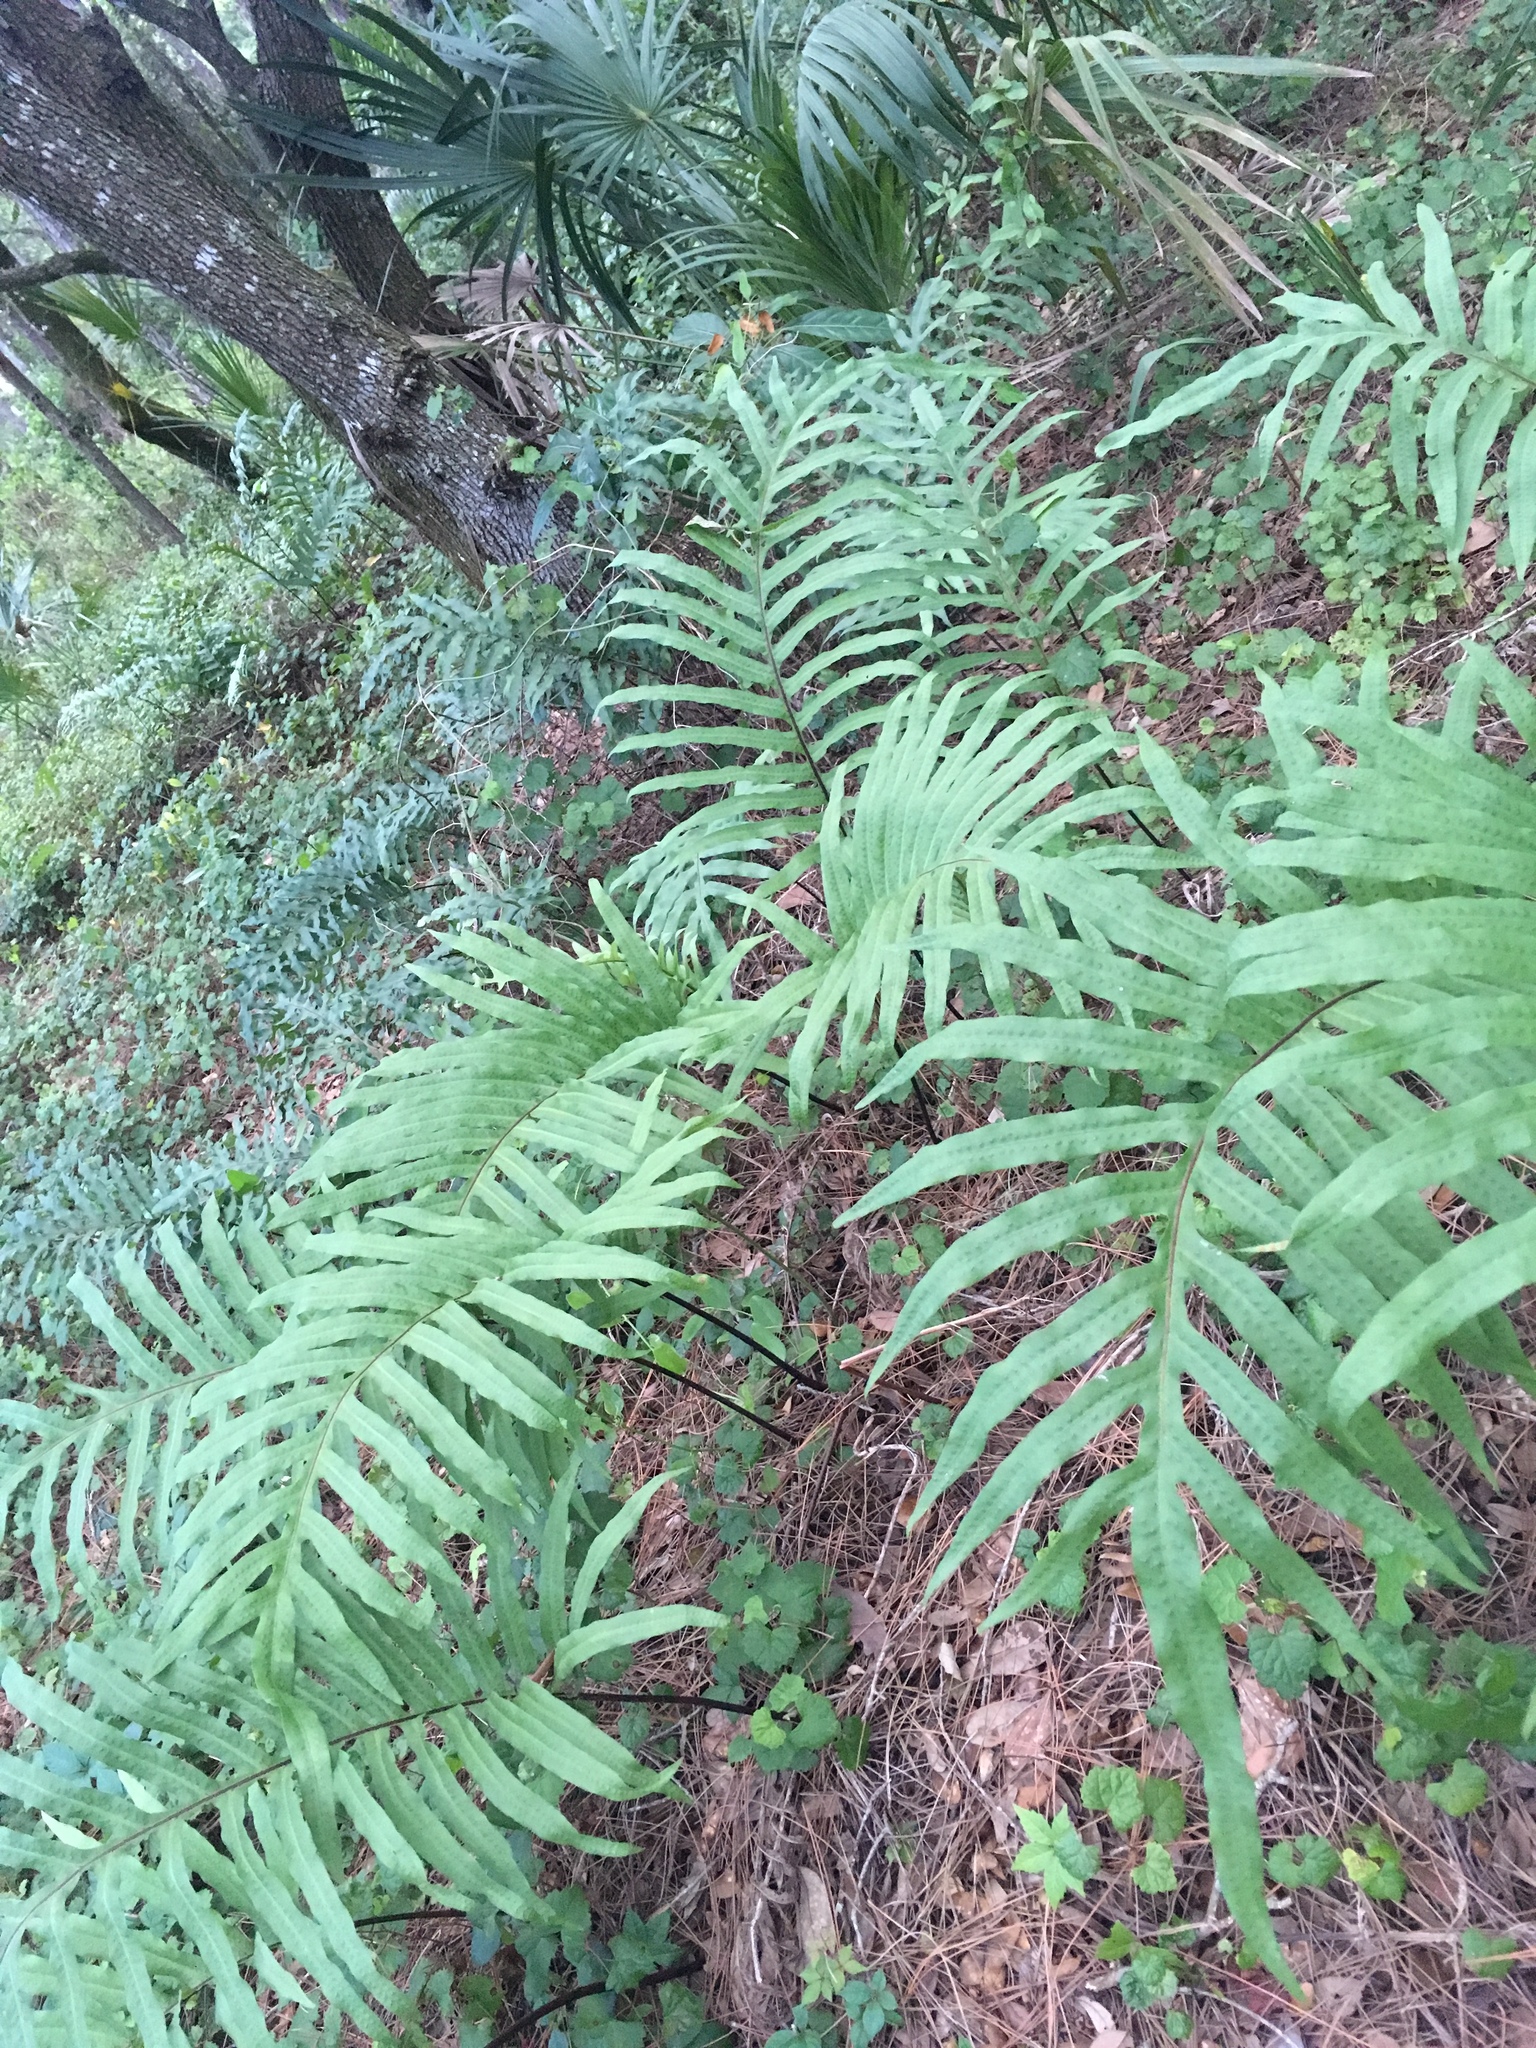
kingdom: Plantae
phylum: Tracheophyta
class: Polypodiopsida
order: Polypodiales
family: Polypodiaceae
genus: Phlebodium
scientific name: Phlebodium aureum
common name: Gold-foot fern
